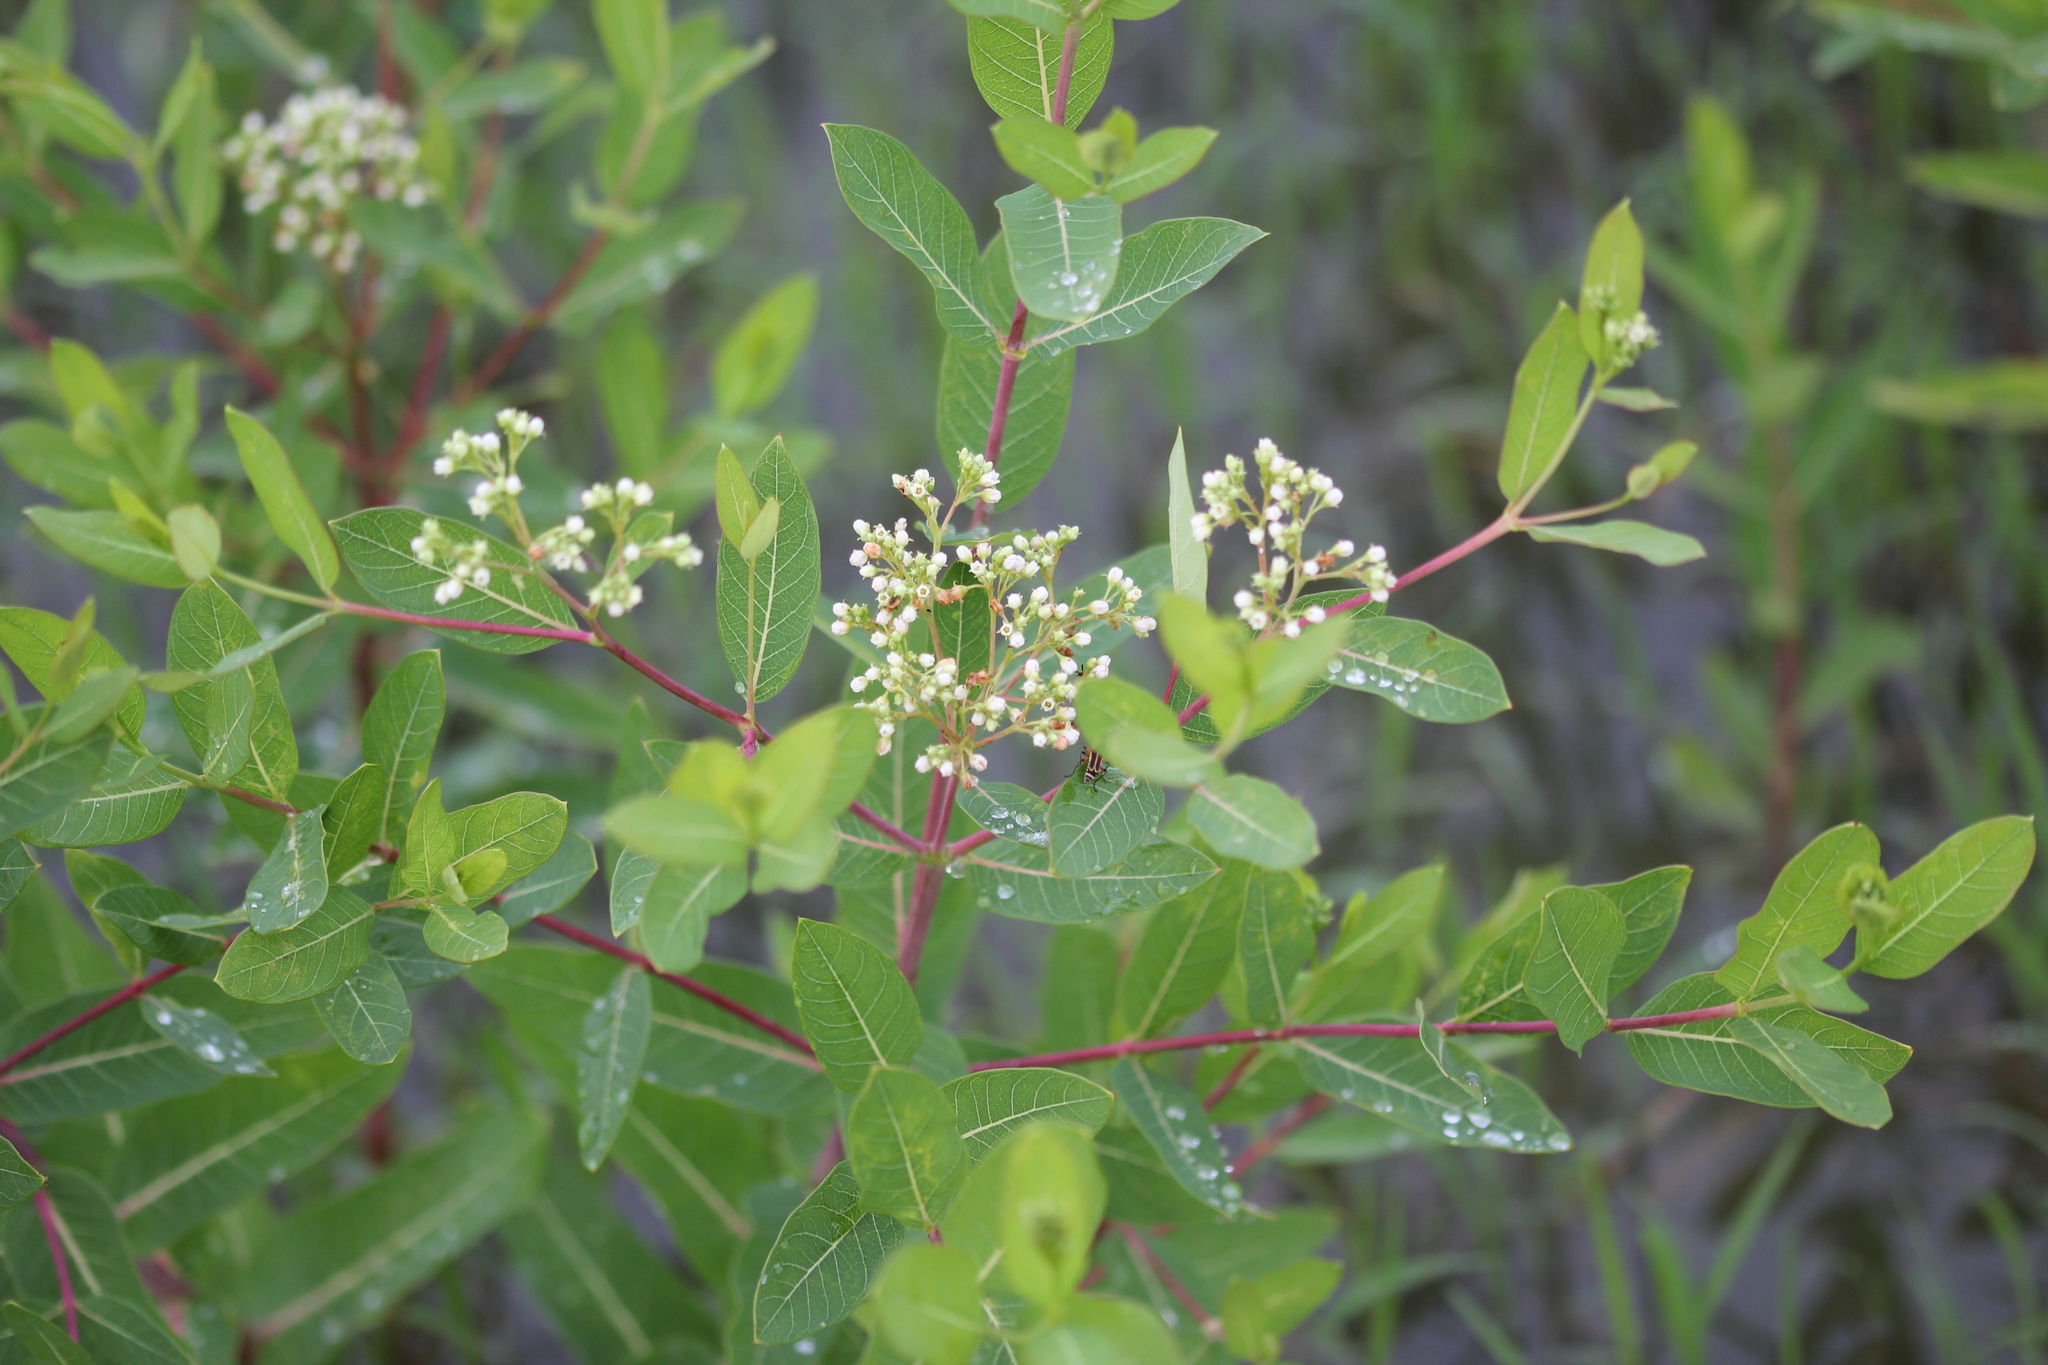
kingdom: Plantae
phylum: Tracheophyta
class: Magnoliopsida
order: Gentianales
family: Apocynaceae
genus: Apocynum
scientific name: Apocynum cannabinum
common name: Hemp dogbane
